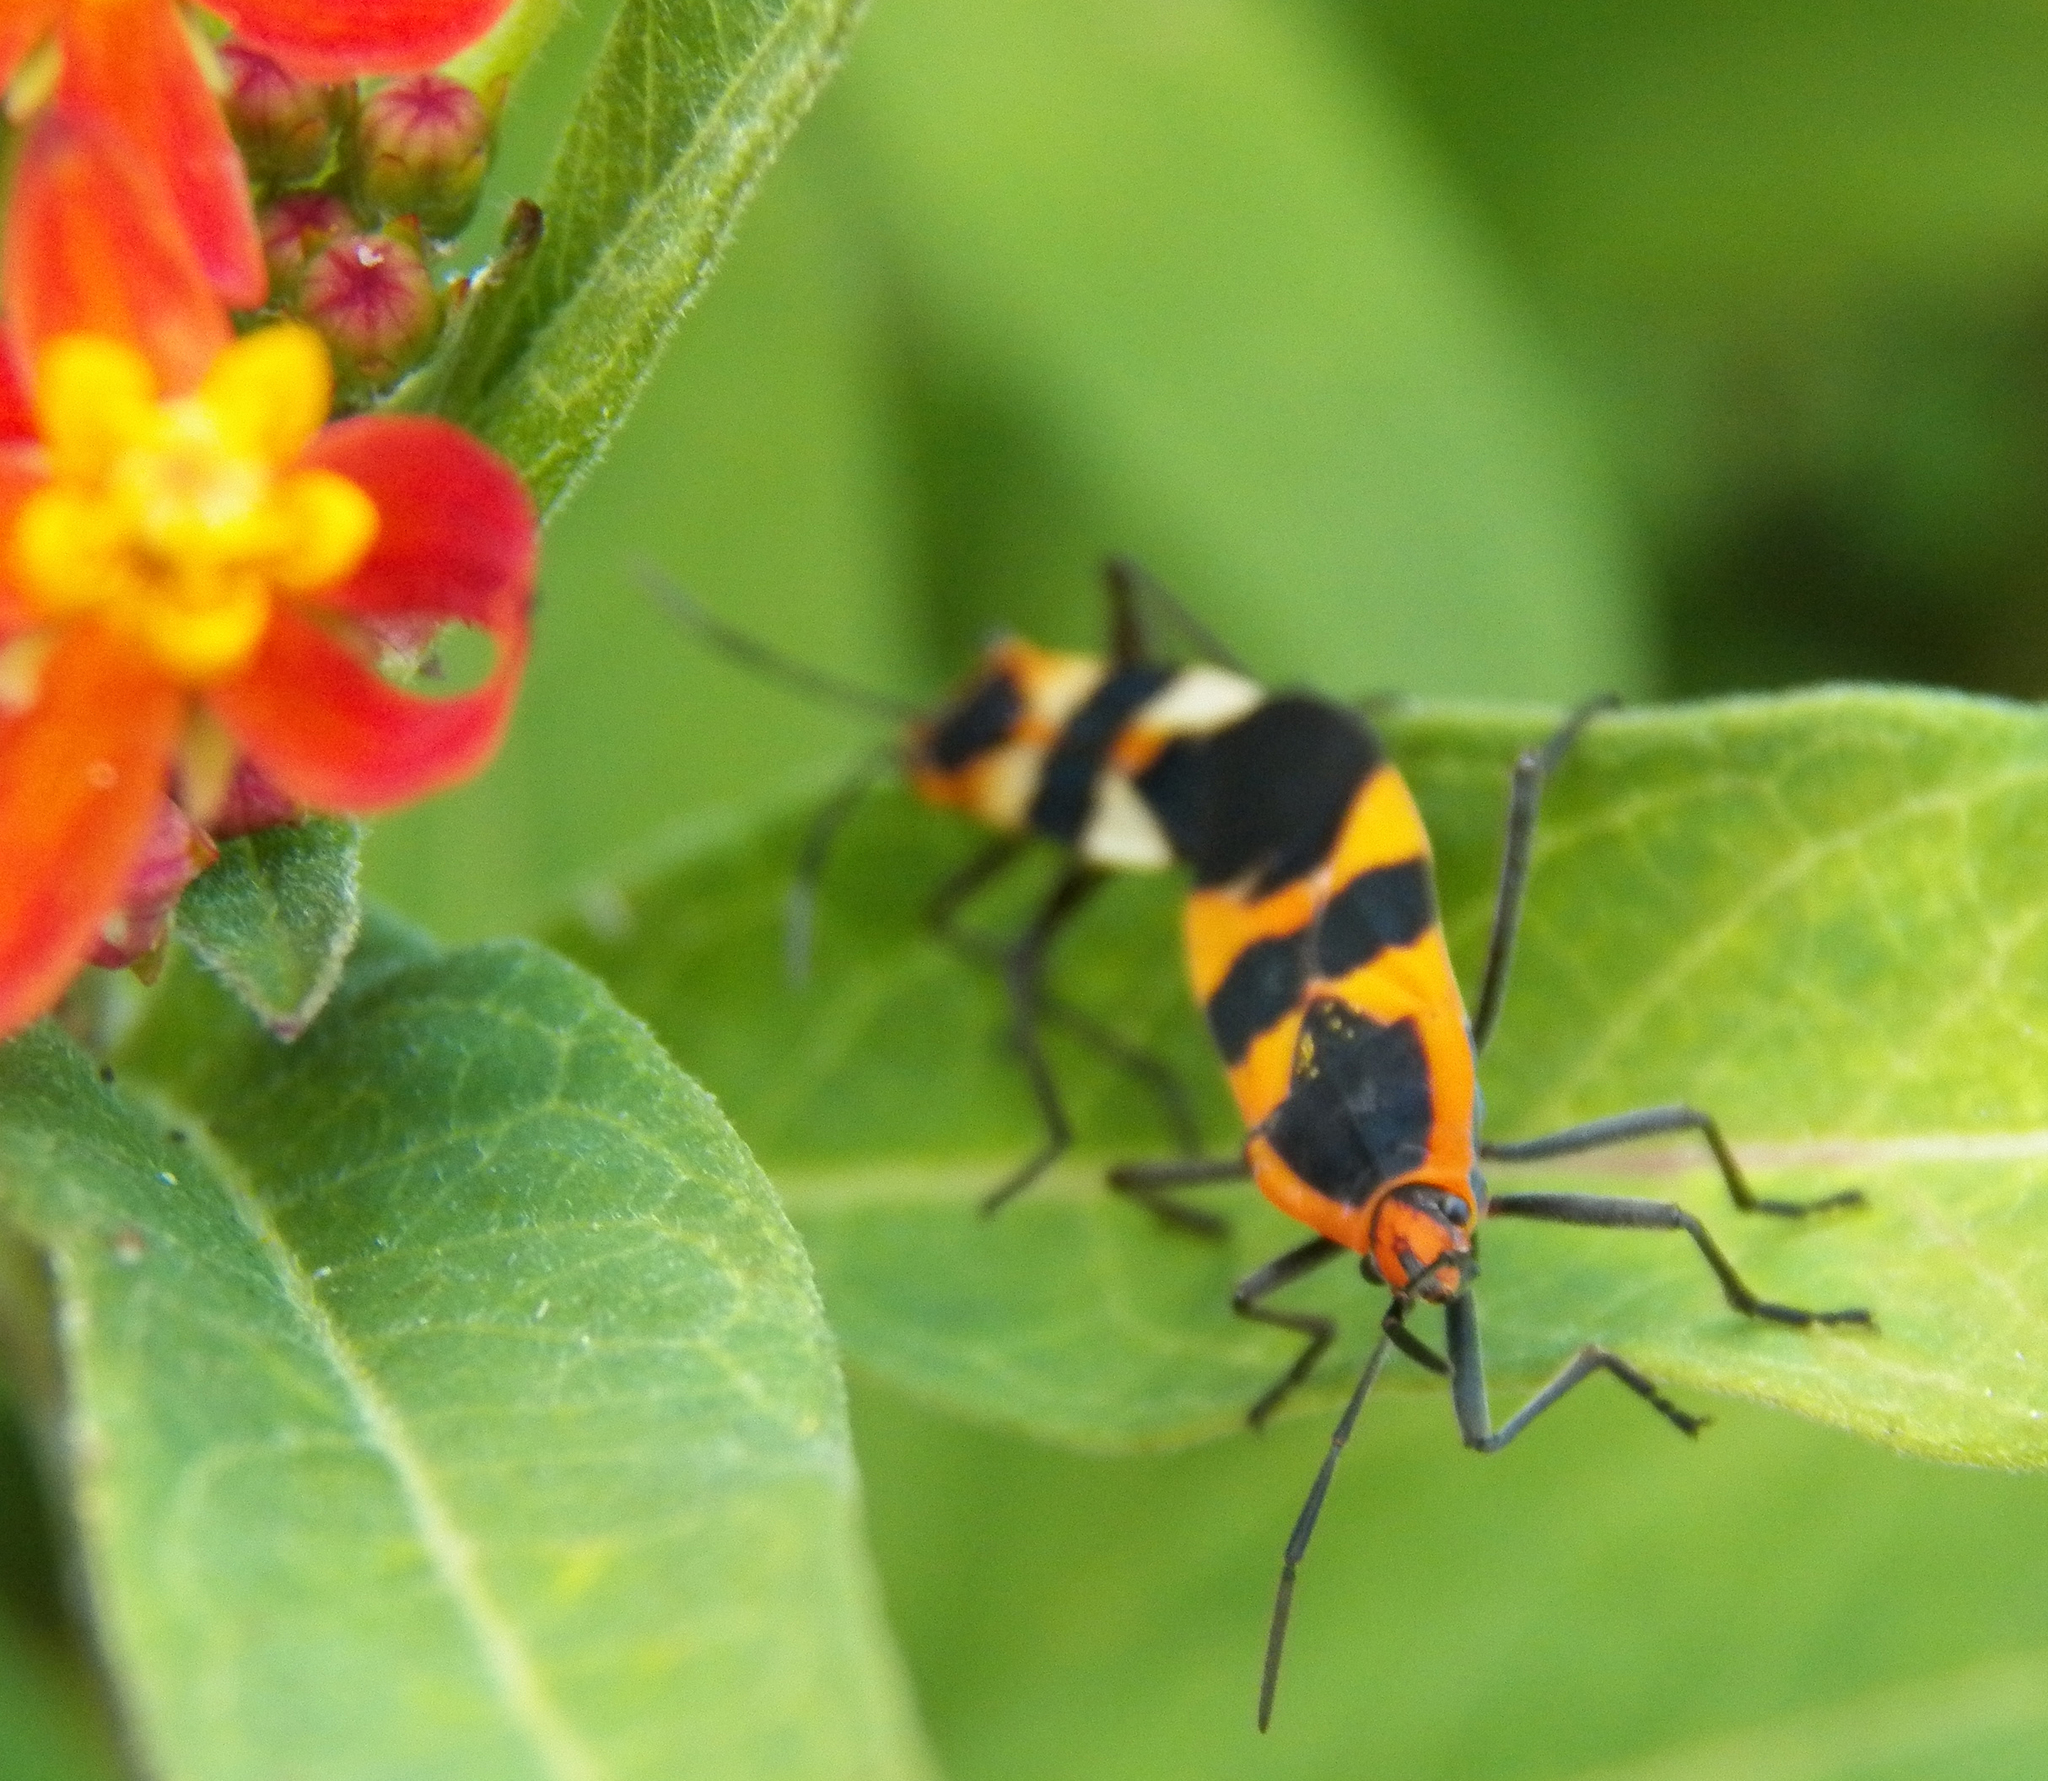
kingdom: Animalia
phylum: Arthropoda
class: Insecta
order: Hemiptera
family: Lygaeidae
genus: Oncopeltus
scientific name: Oncopeltus fasciatus
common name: Large milkweed bug
